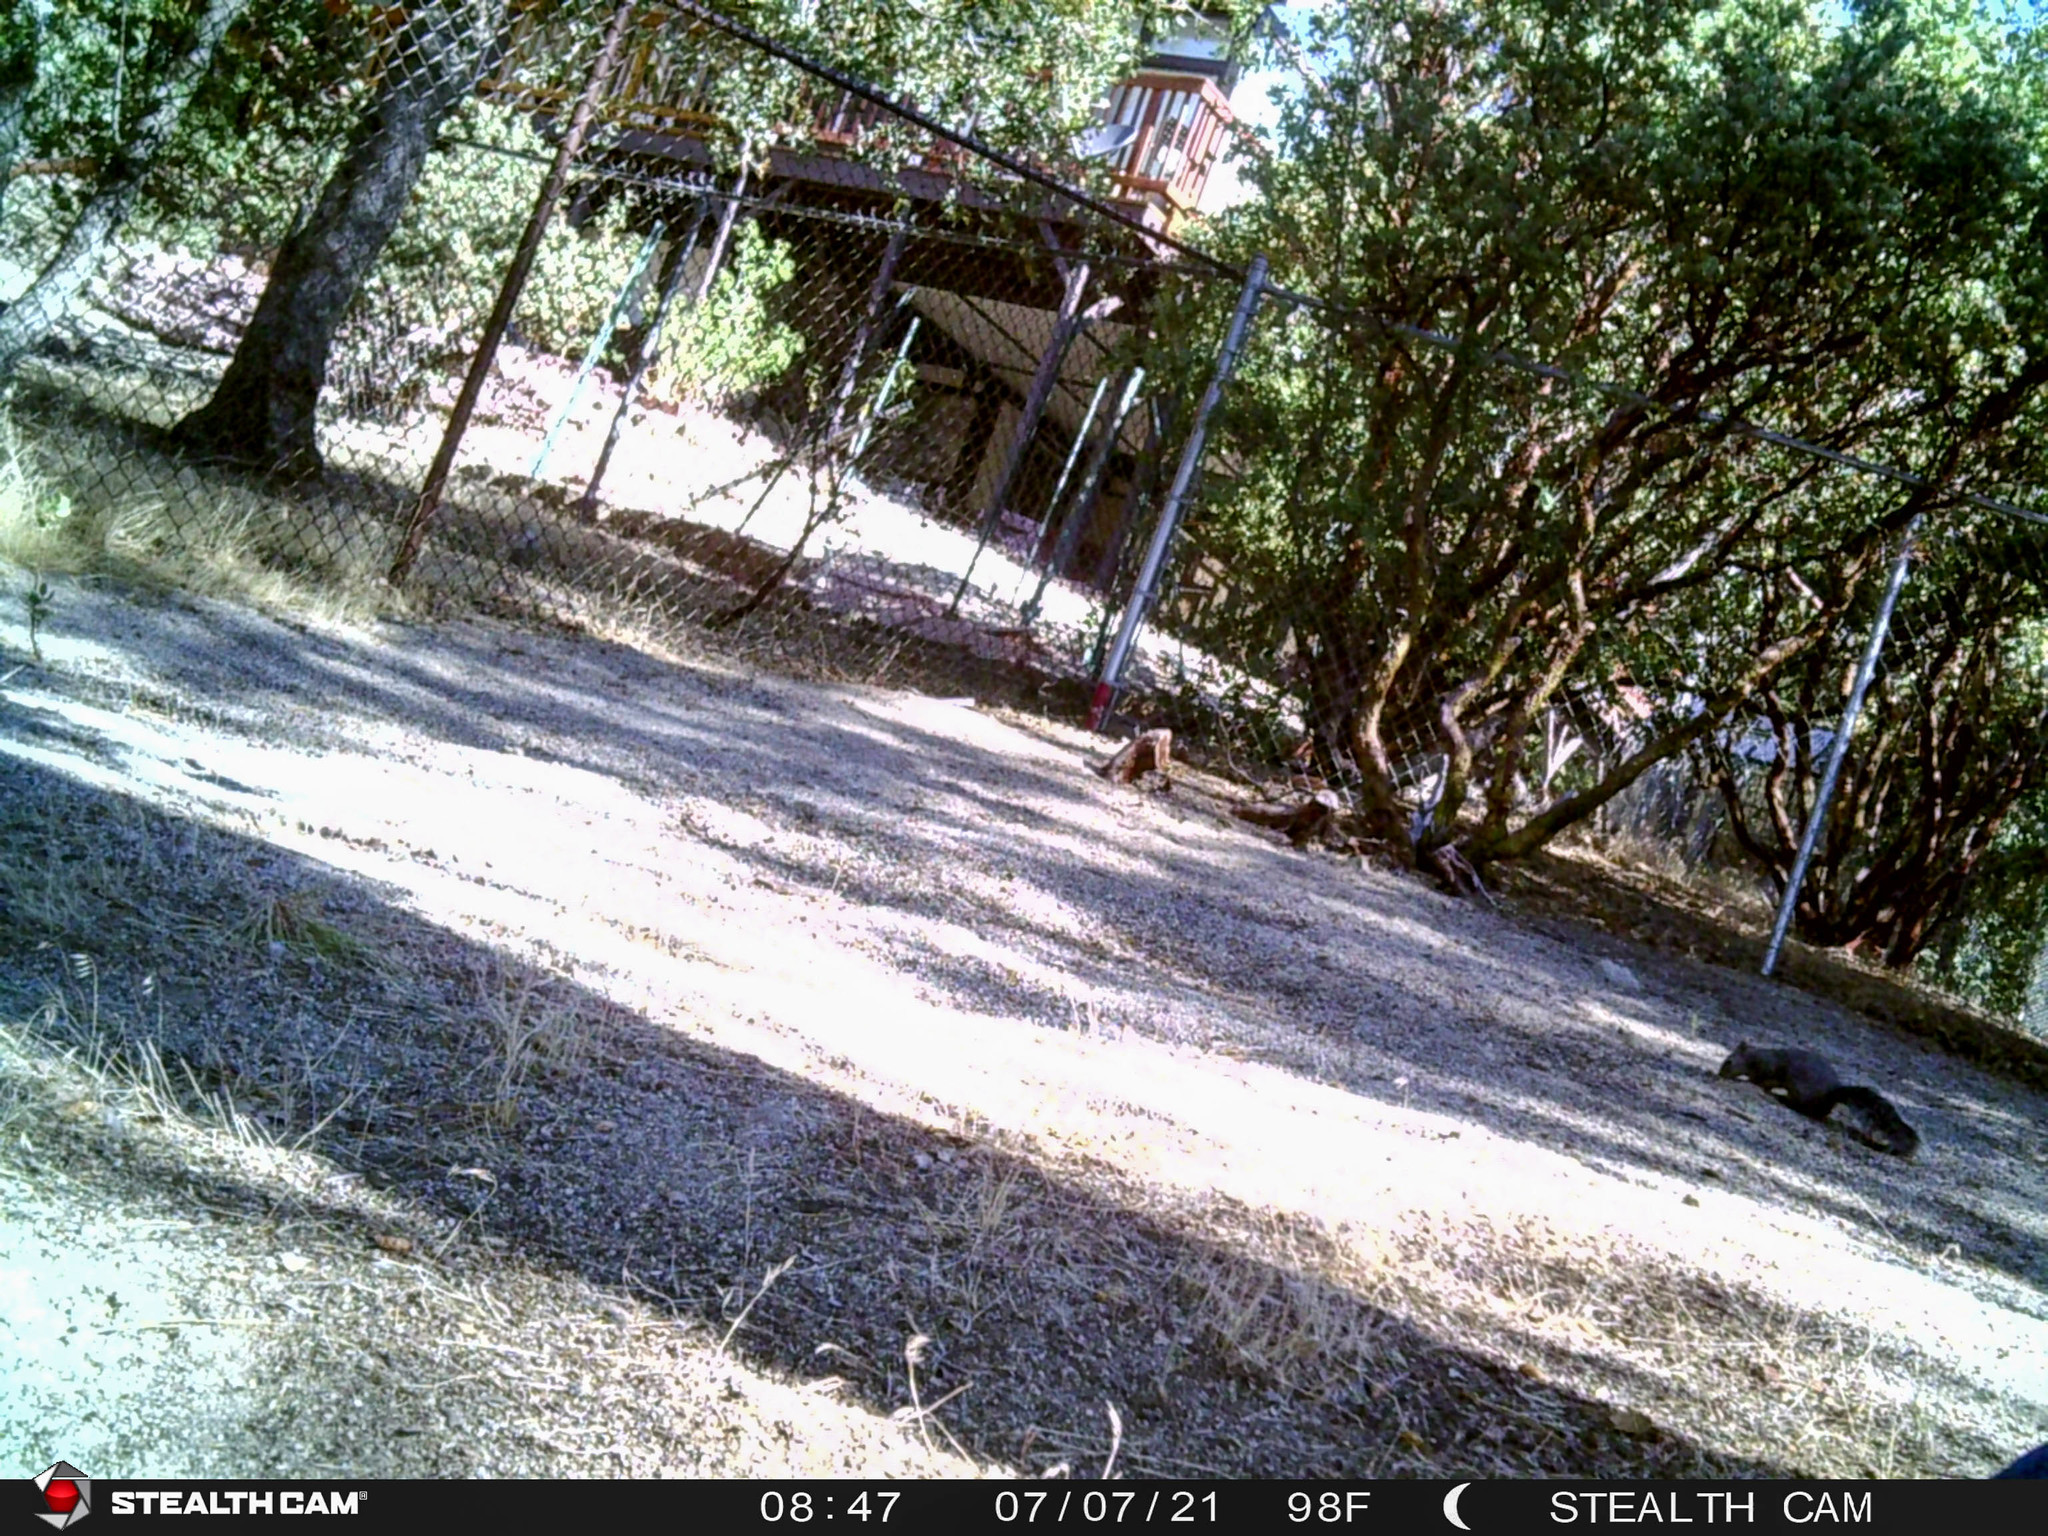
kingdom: Animalia
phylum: Chordata
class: Mammalia
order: Rodentia
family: Sciuridae
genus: Sciurus
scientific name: Sciurus griseus
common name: Western gray squirrel
